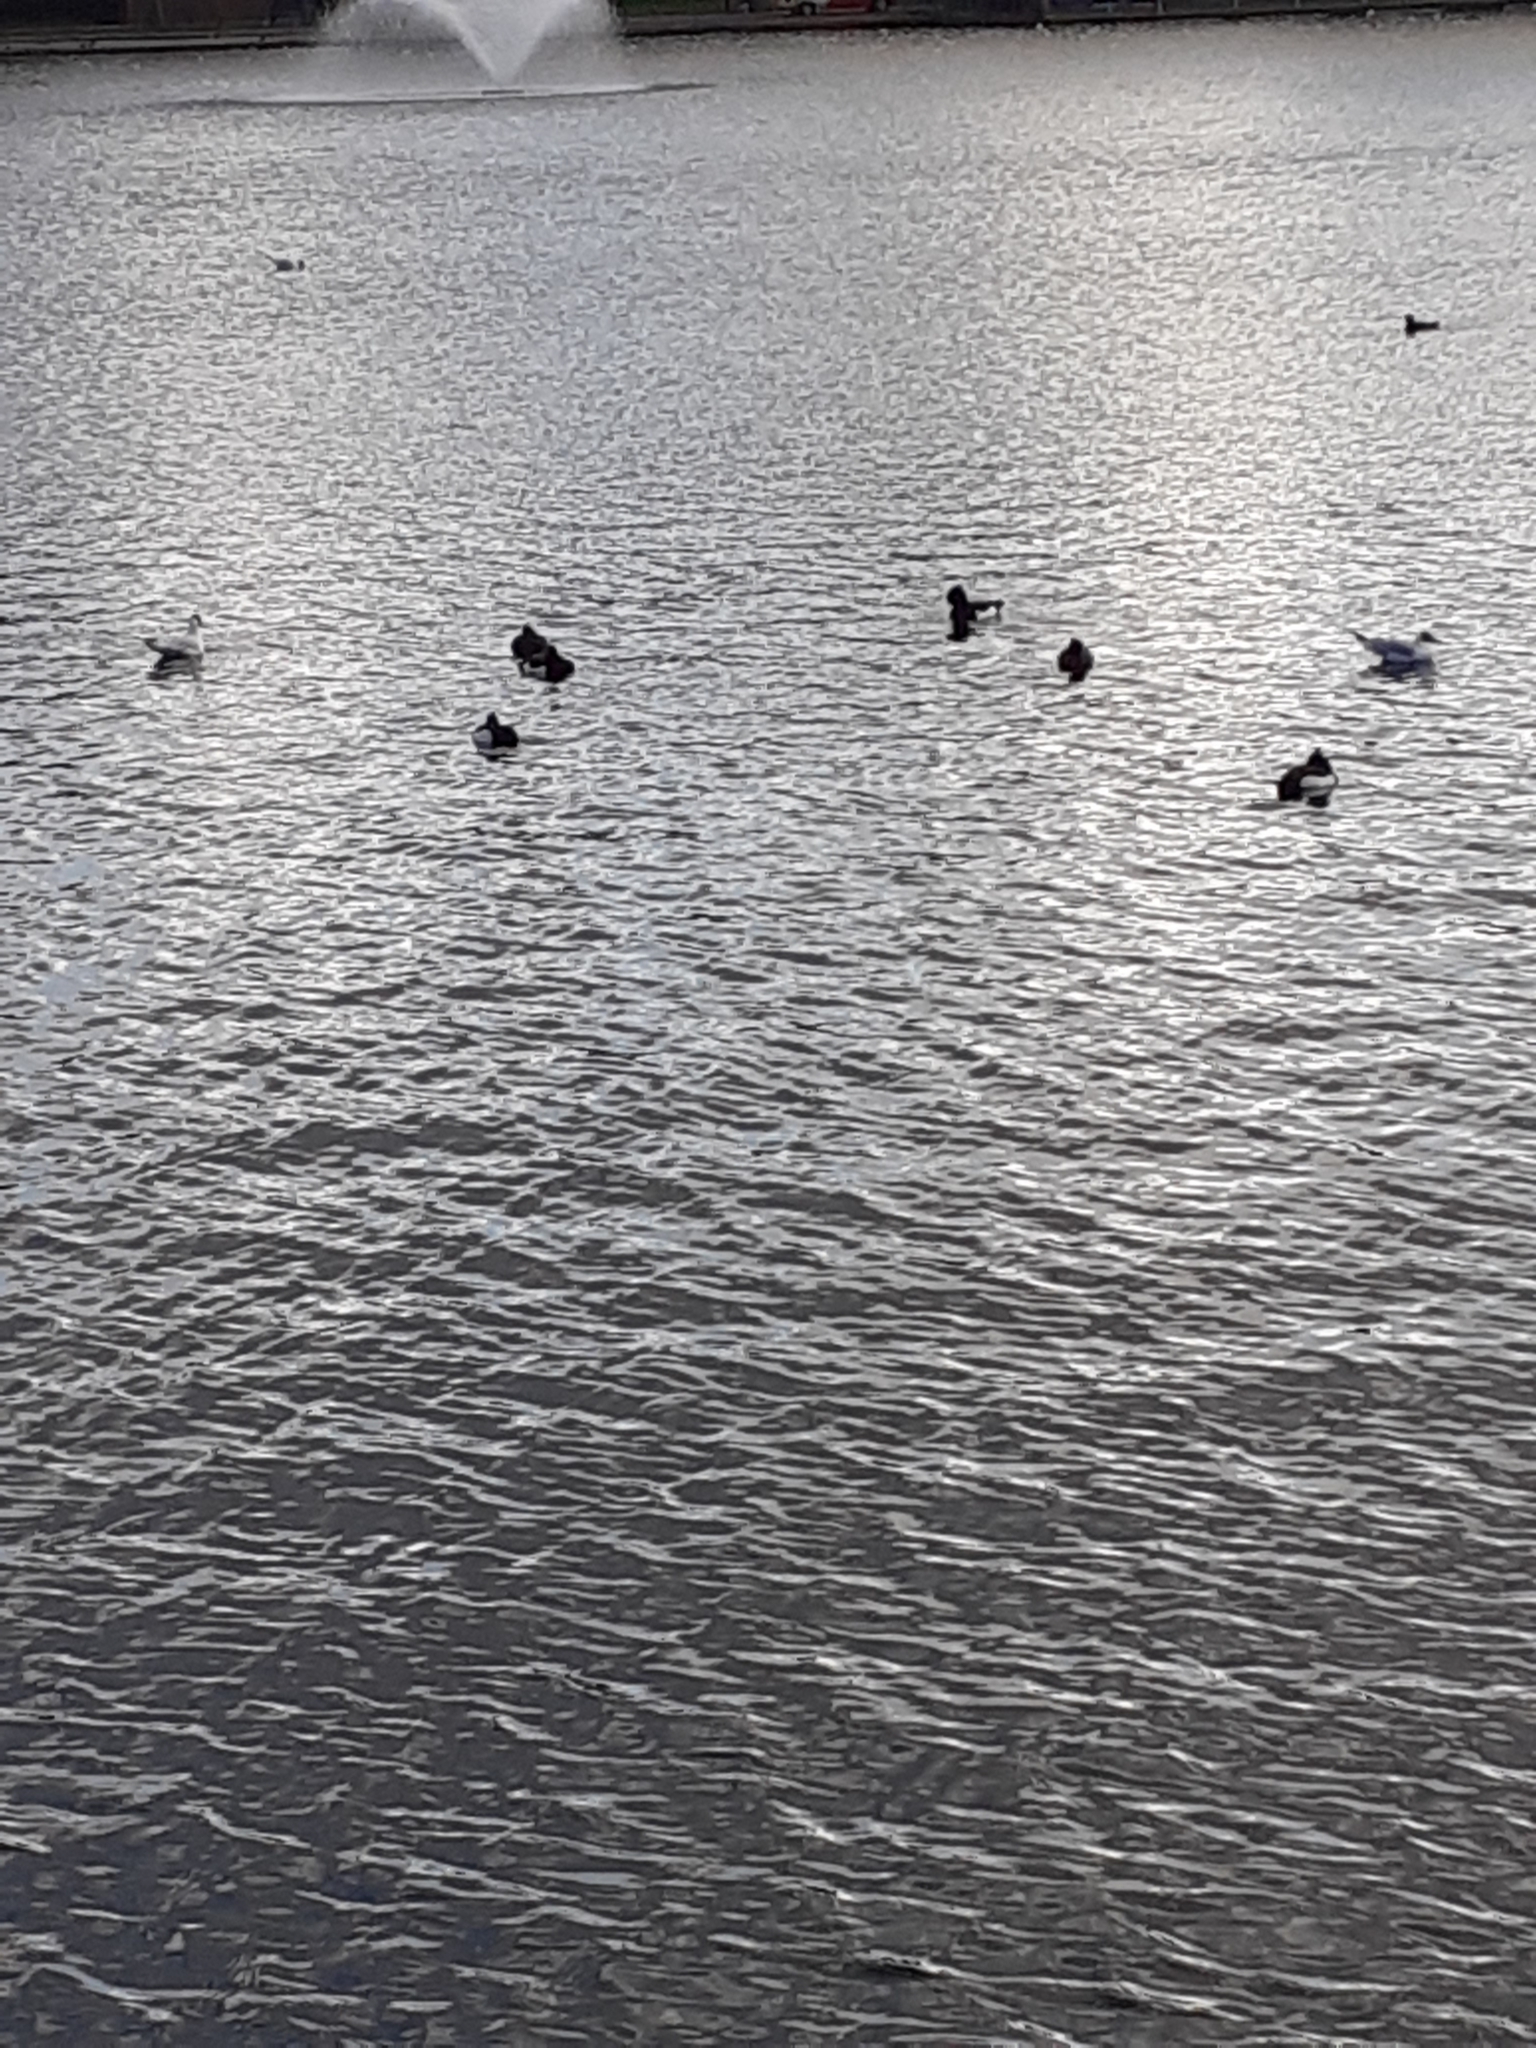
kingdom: Animalia
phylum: Chordata
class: Aves
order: Anseriformes
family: Anatidae
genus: Aythya
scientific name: Aythya fuligula
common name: Tufted duck
